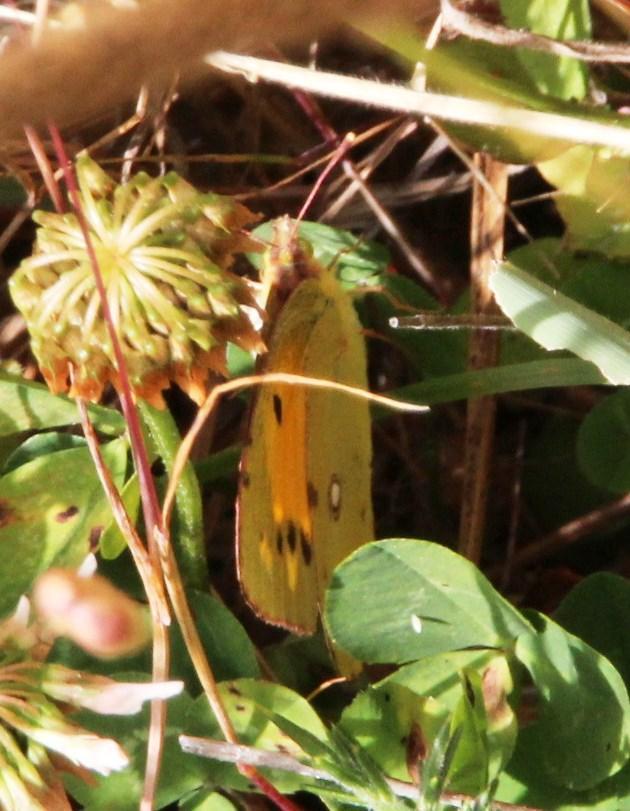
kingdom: Animalia
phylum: Arthropoda
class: Insecta
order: Lepidoptera
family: Pieridae
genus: Colias
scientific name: Colias croceus
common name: Clouded yellow
